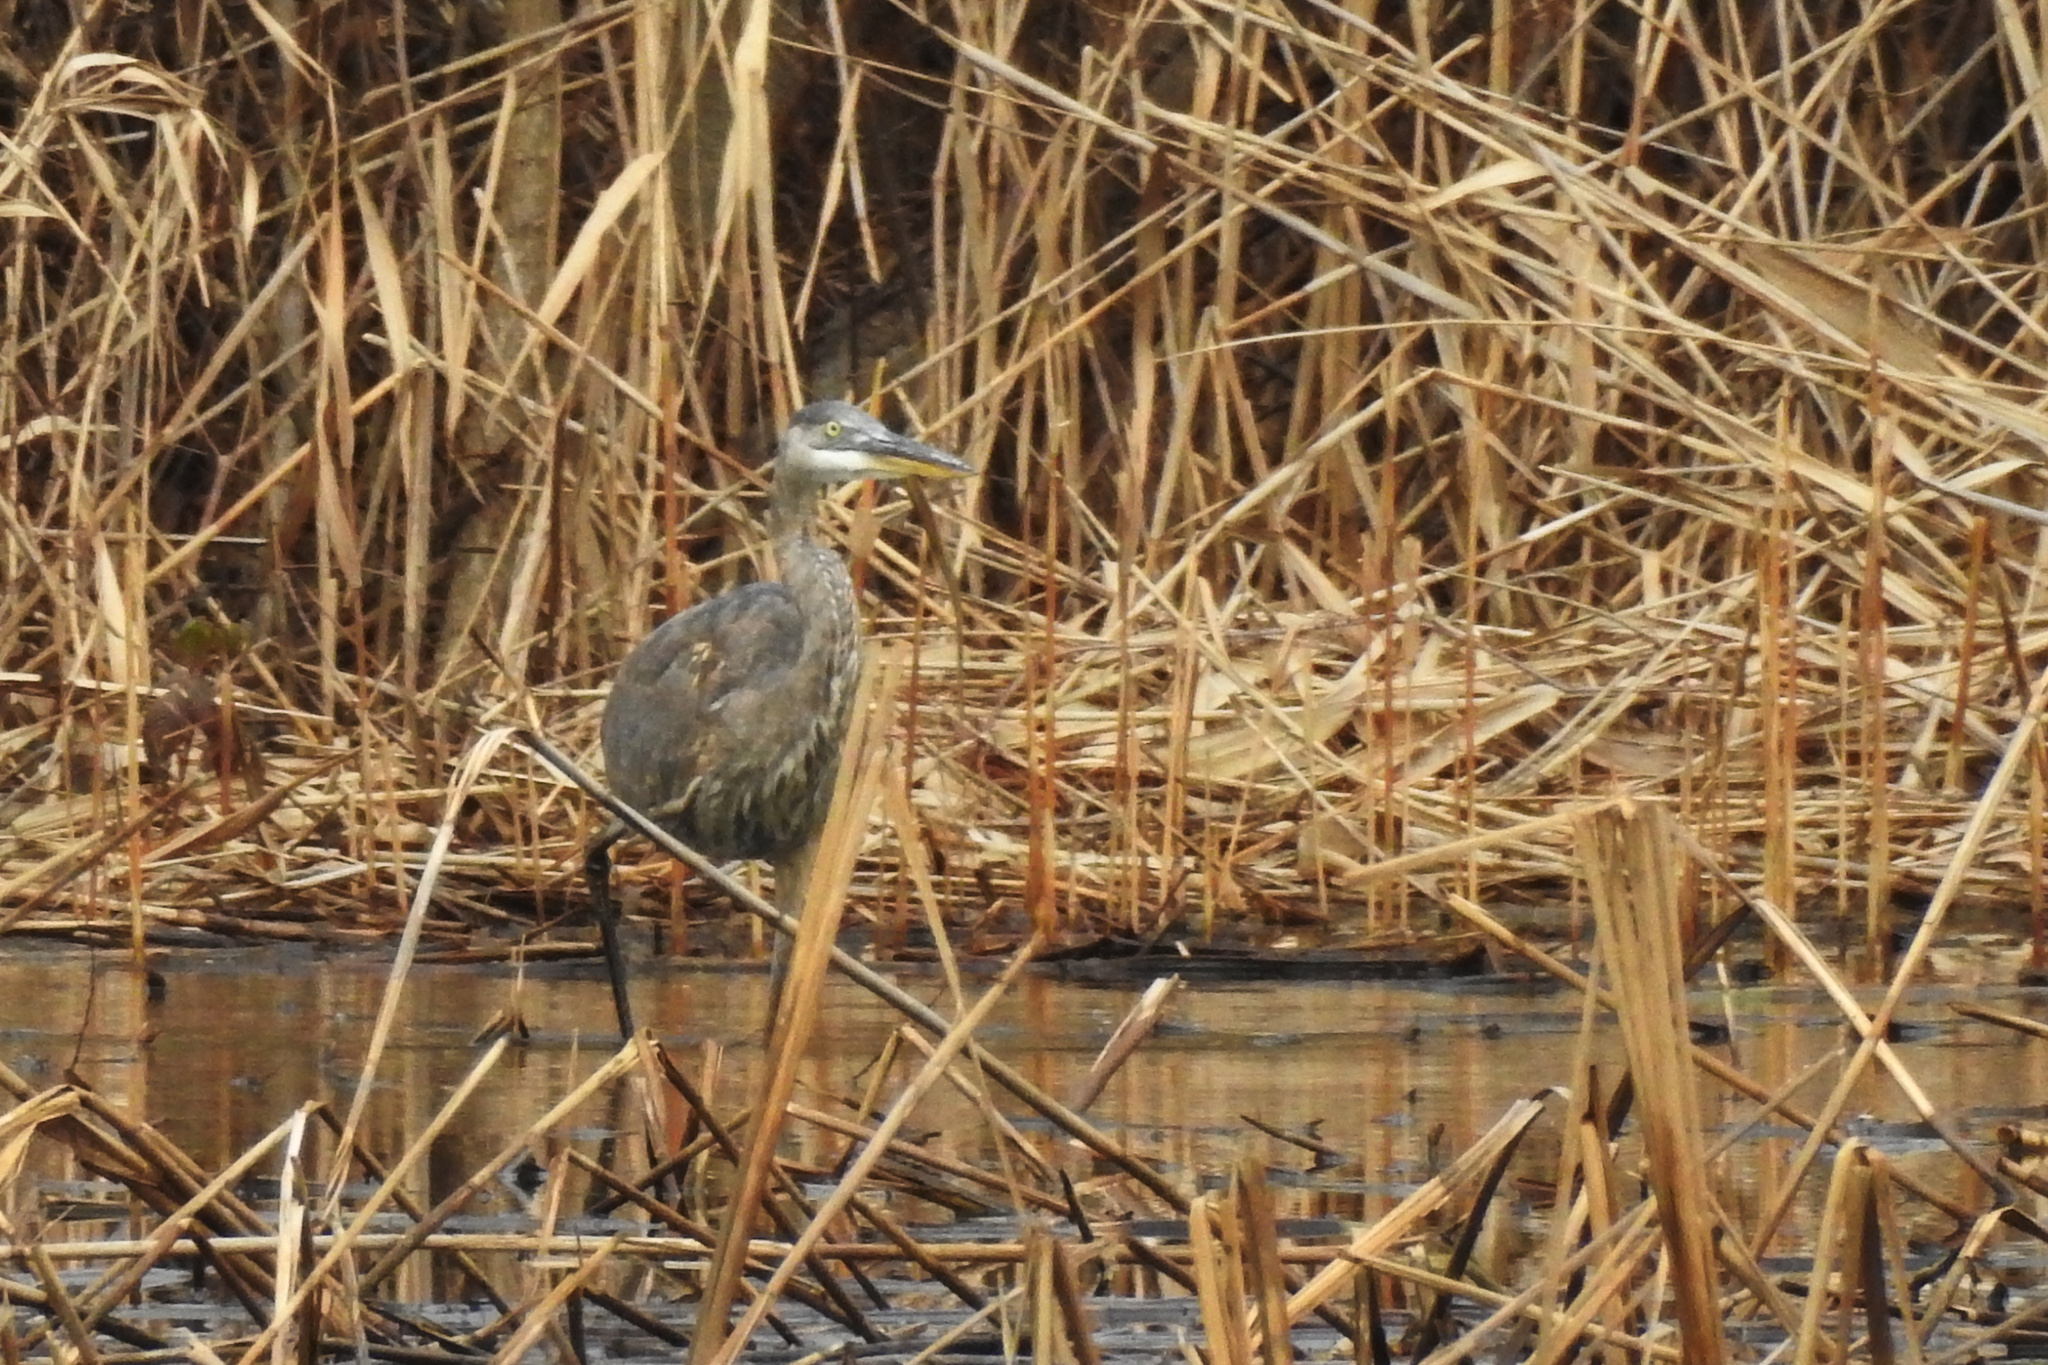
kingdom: Animalia
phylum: Chordata
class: Aves
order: Pelecaniformes
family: Ardeidae
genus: Ardea
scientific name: Ardea herodias
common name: Great blue heron
